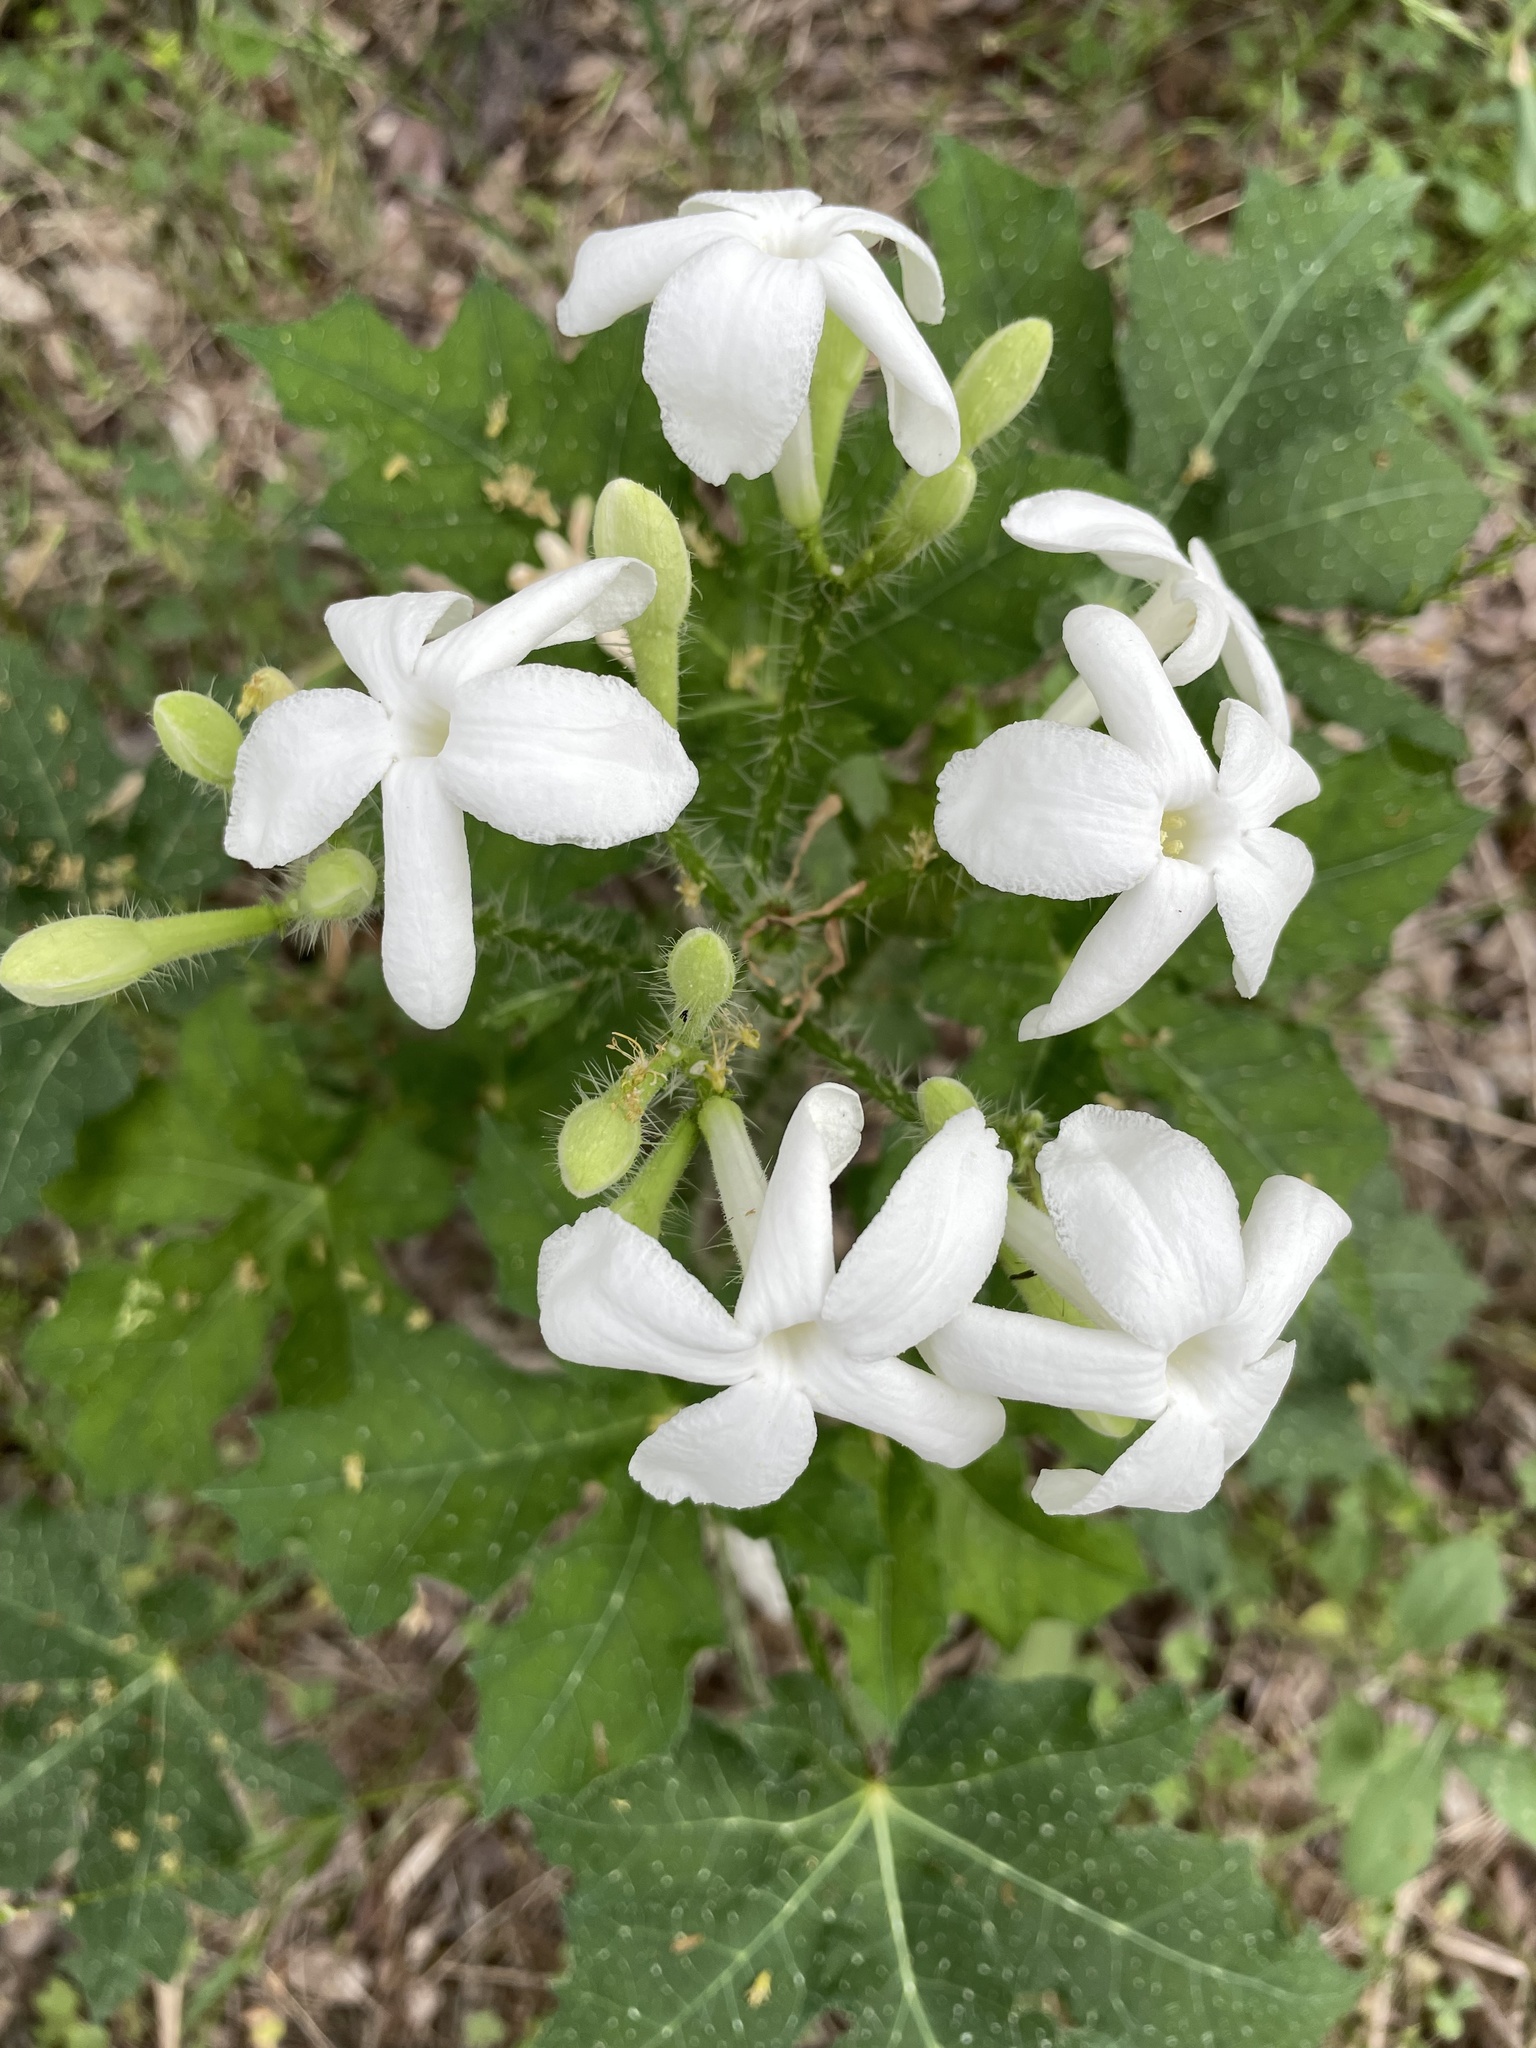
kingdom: Plantae
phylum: Tracheophyta
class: Magnoliopsida
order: Malpighiales
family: Euphorbiaceae
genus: Cnidoscolus
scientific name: Cnidoscolus texanus
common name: Texas bull-nettle
